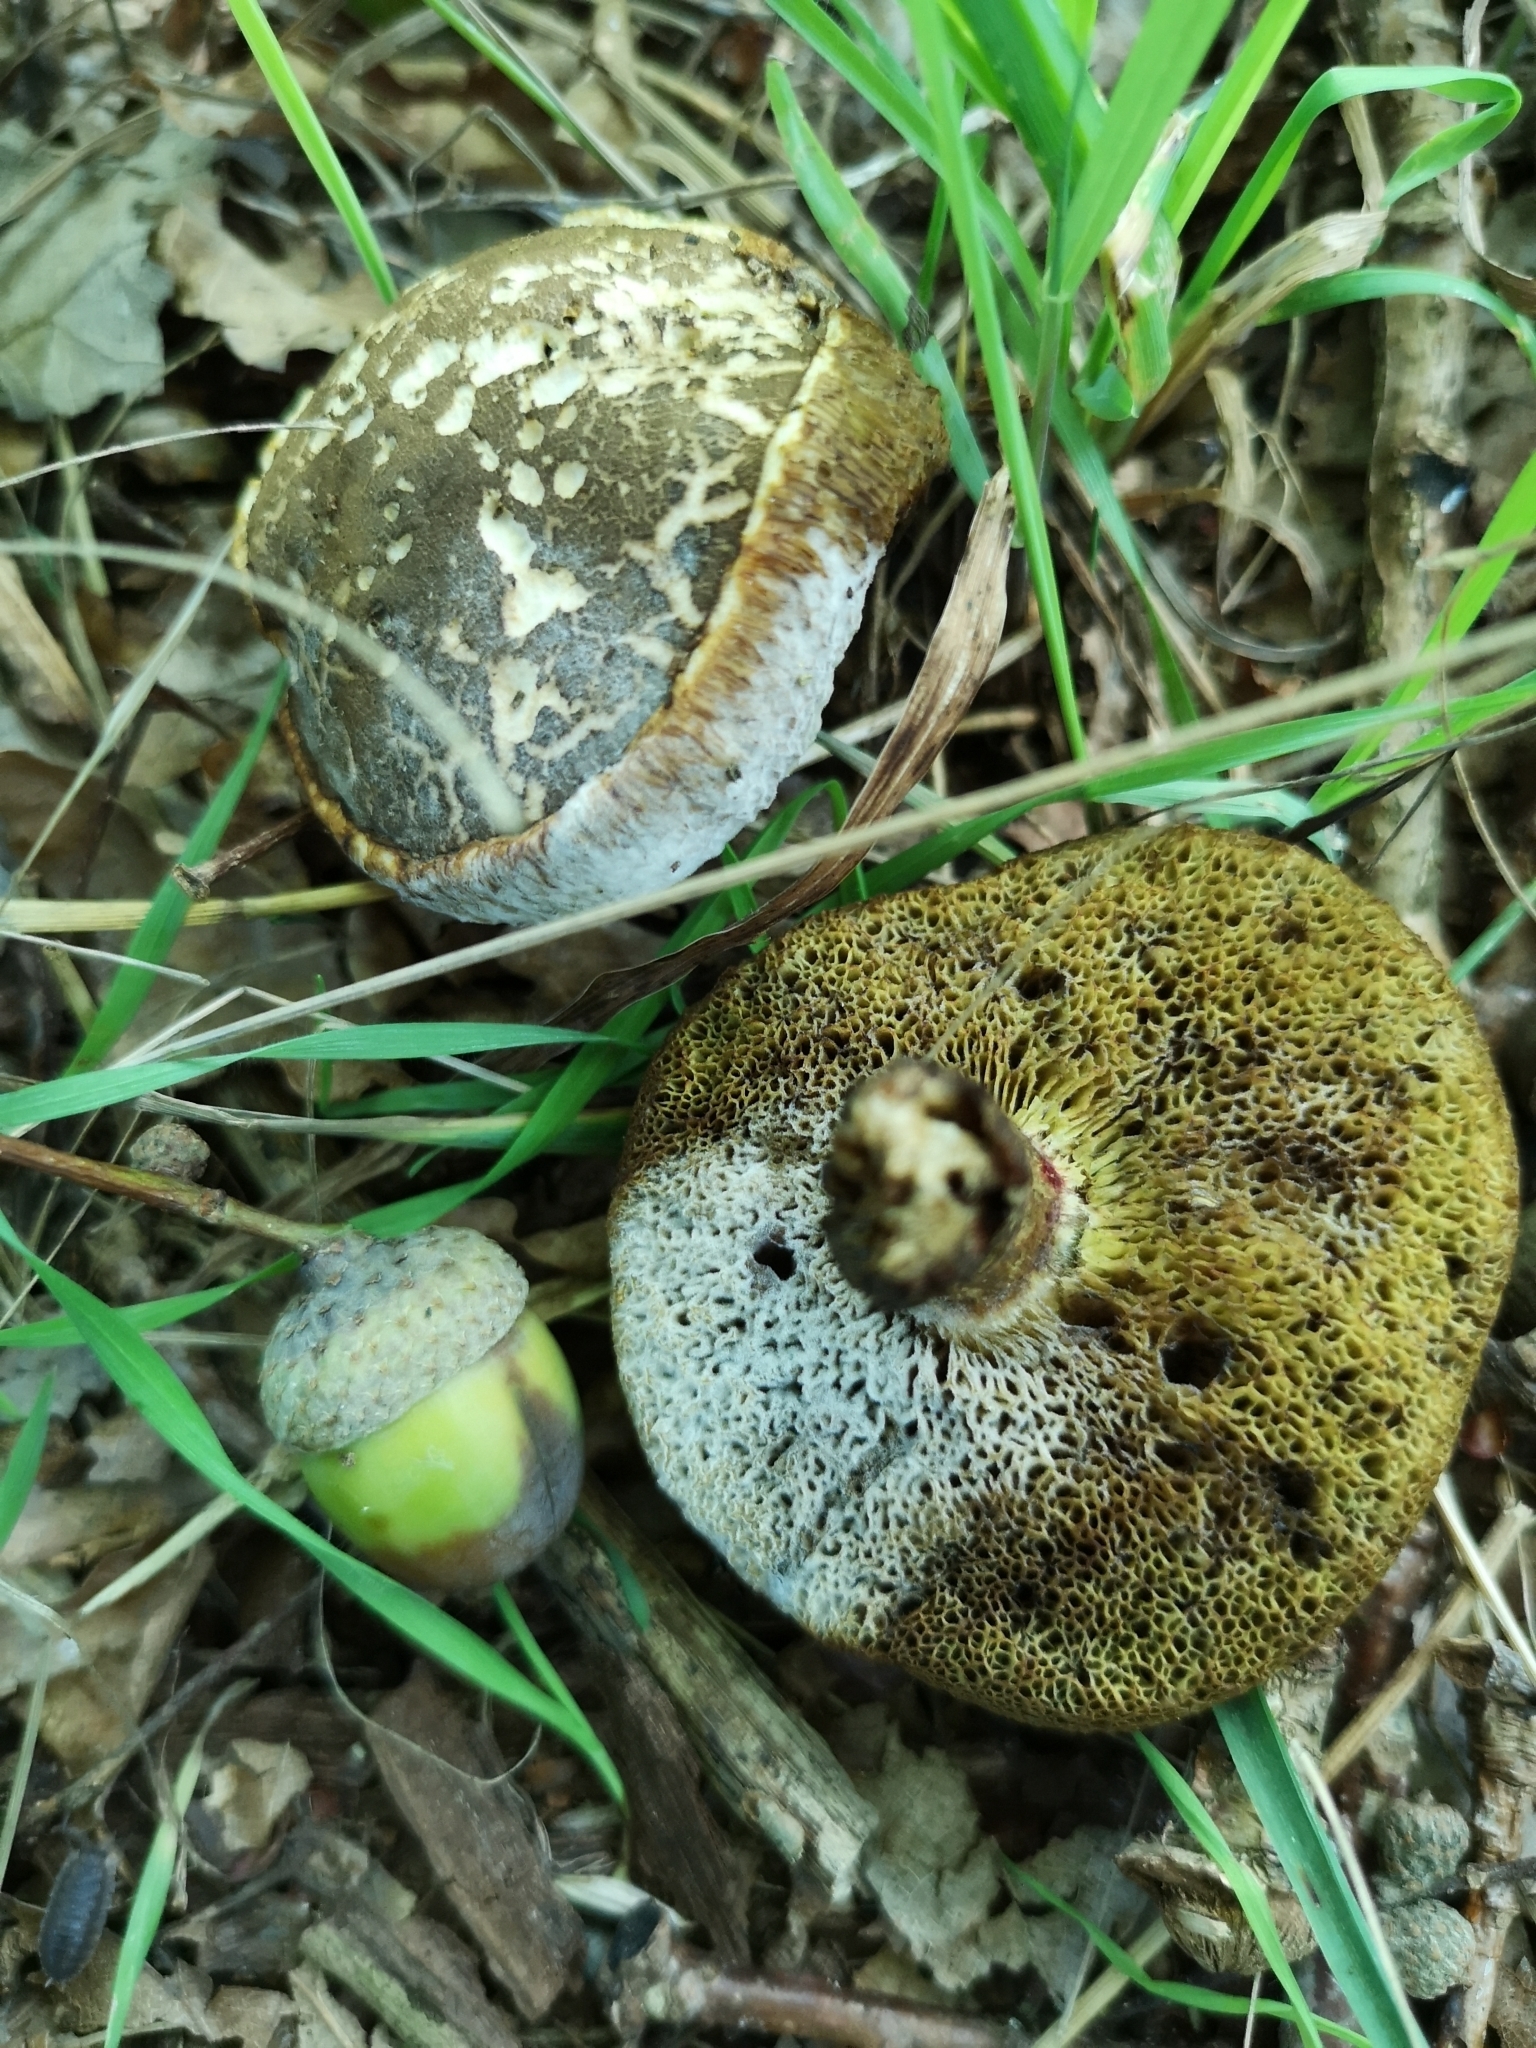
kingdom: Fungi
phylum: Basidiomycota
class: Agaricomycetes
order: Boletales
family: Boletaceae
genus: Xerocomellus
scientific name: Xerocomellus chrysenteron
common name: Red-cracking bolete
